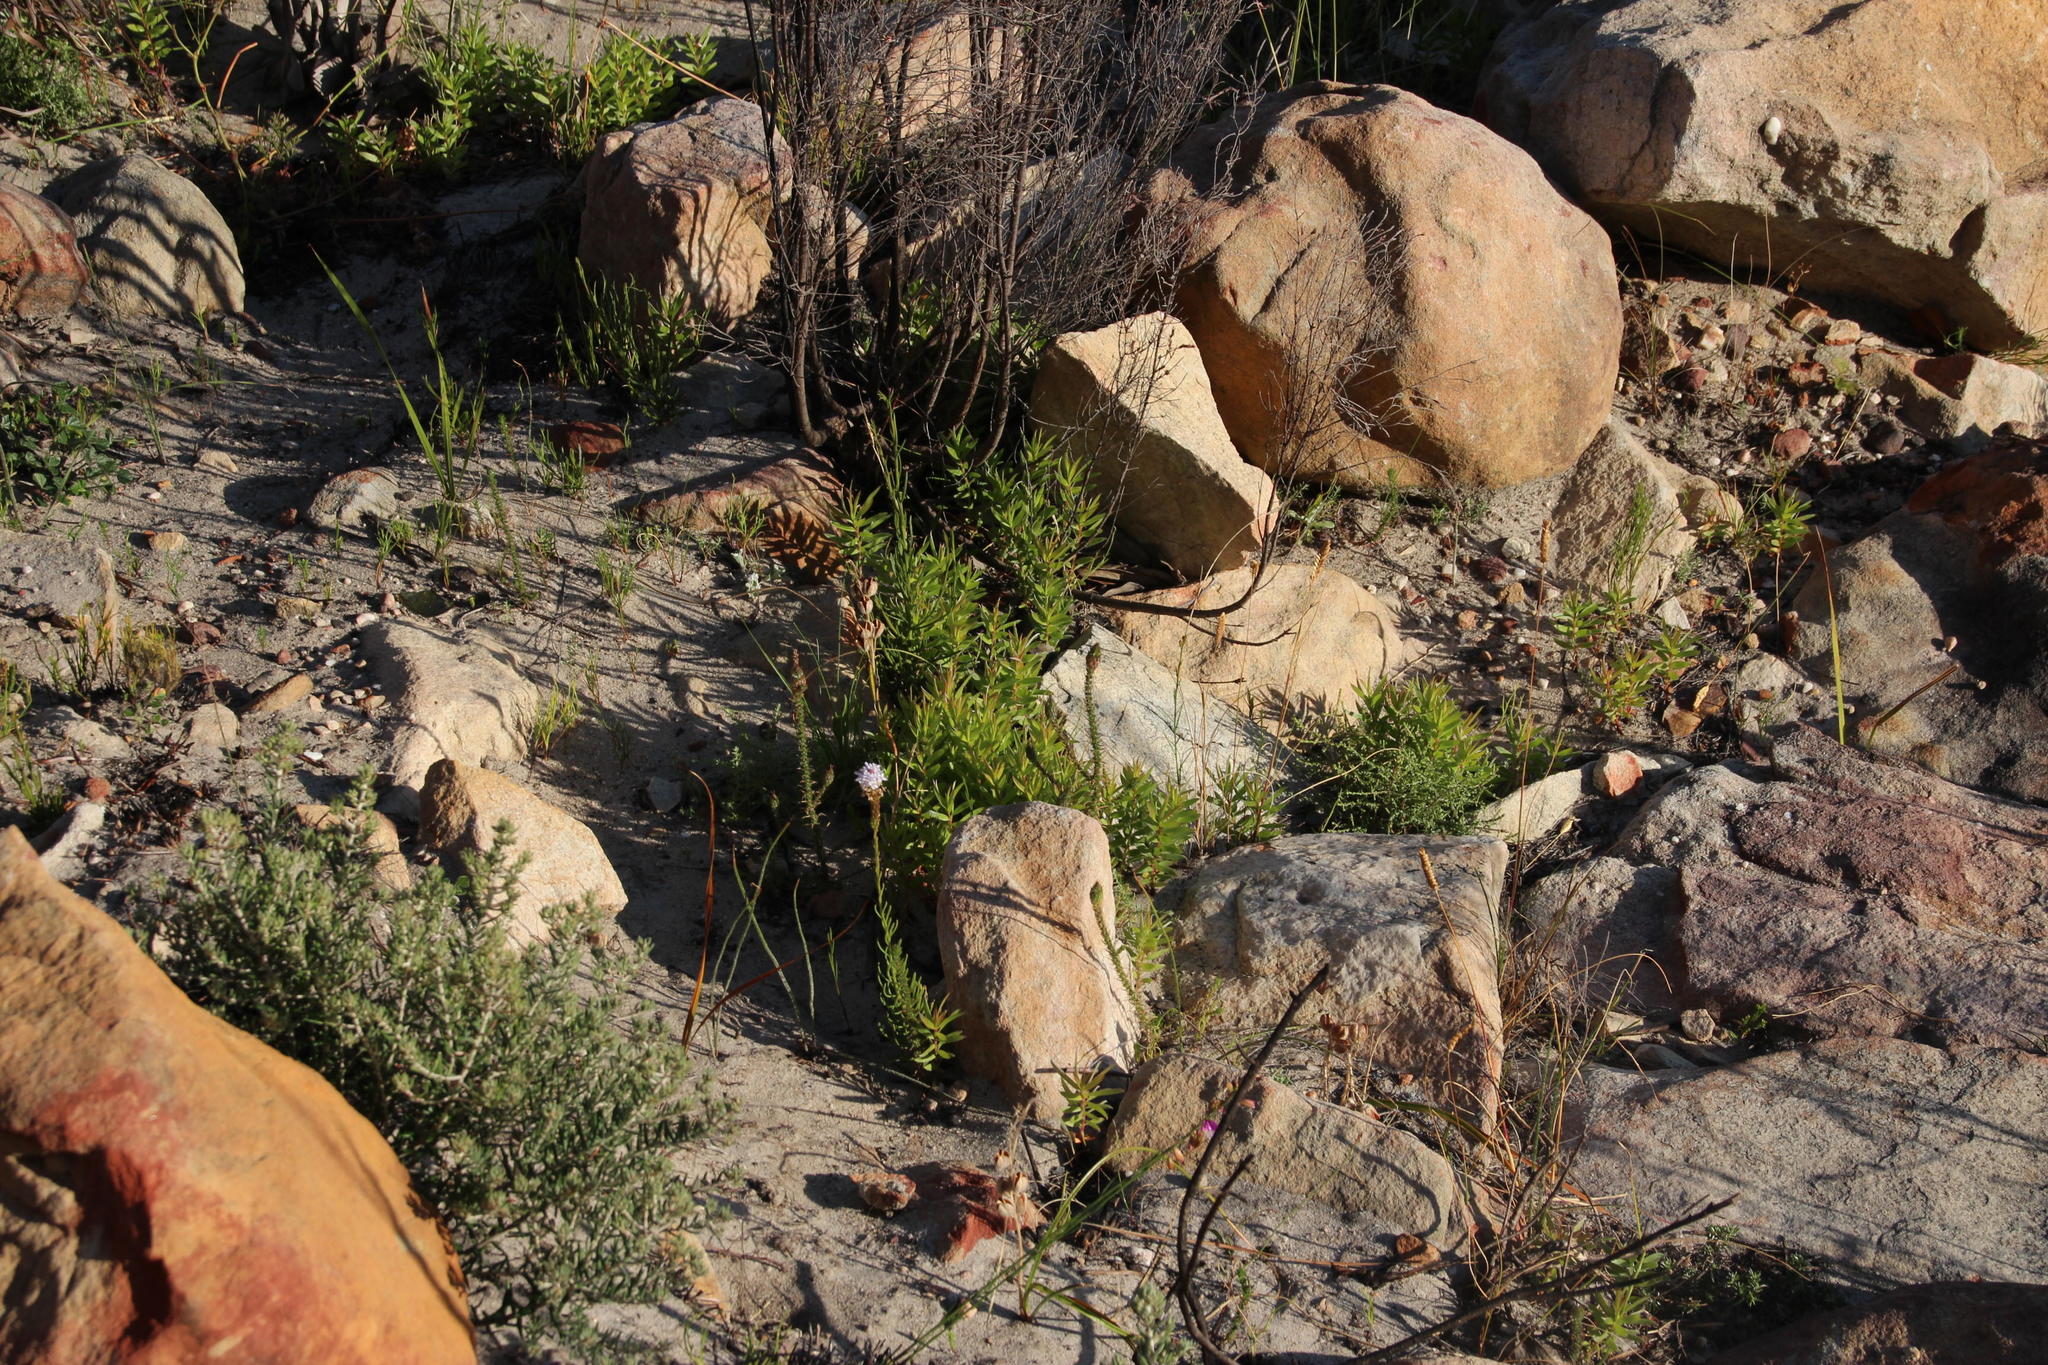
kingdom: Plantae
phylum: Tracheophyta
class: Magnoliopsida
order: Proteales
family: Proteaceae
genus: Leucadendron
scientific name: Leucadendron xanthoconus
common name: Sickle-leaf conebush
